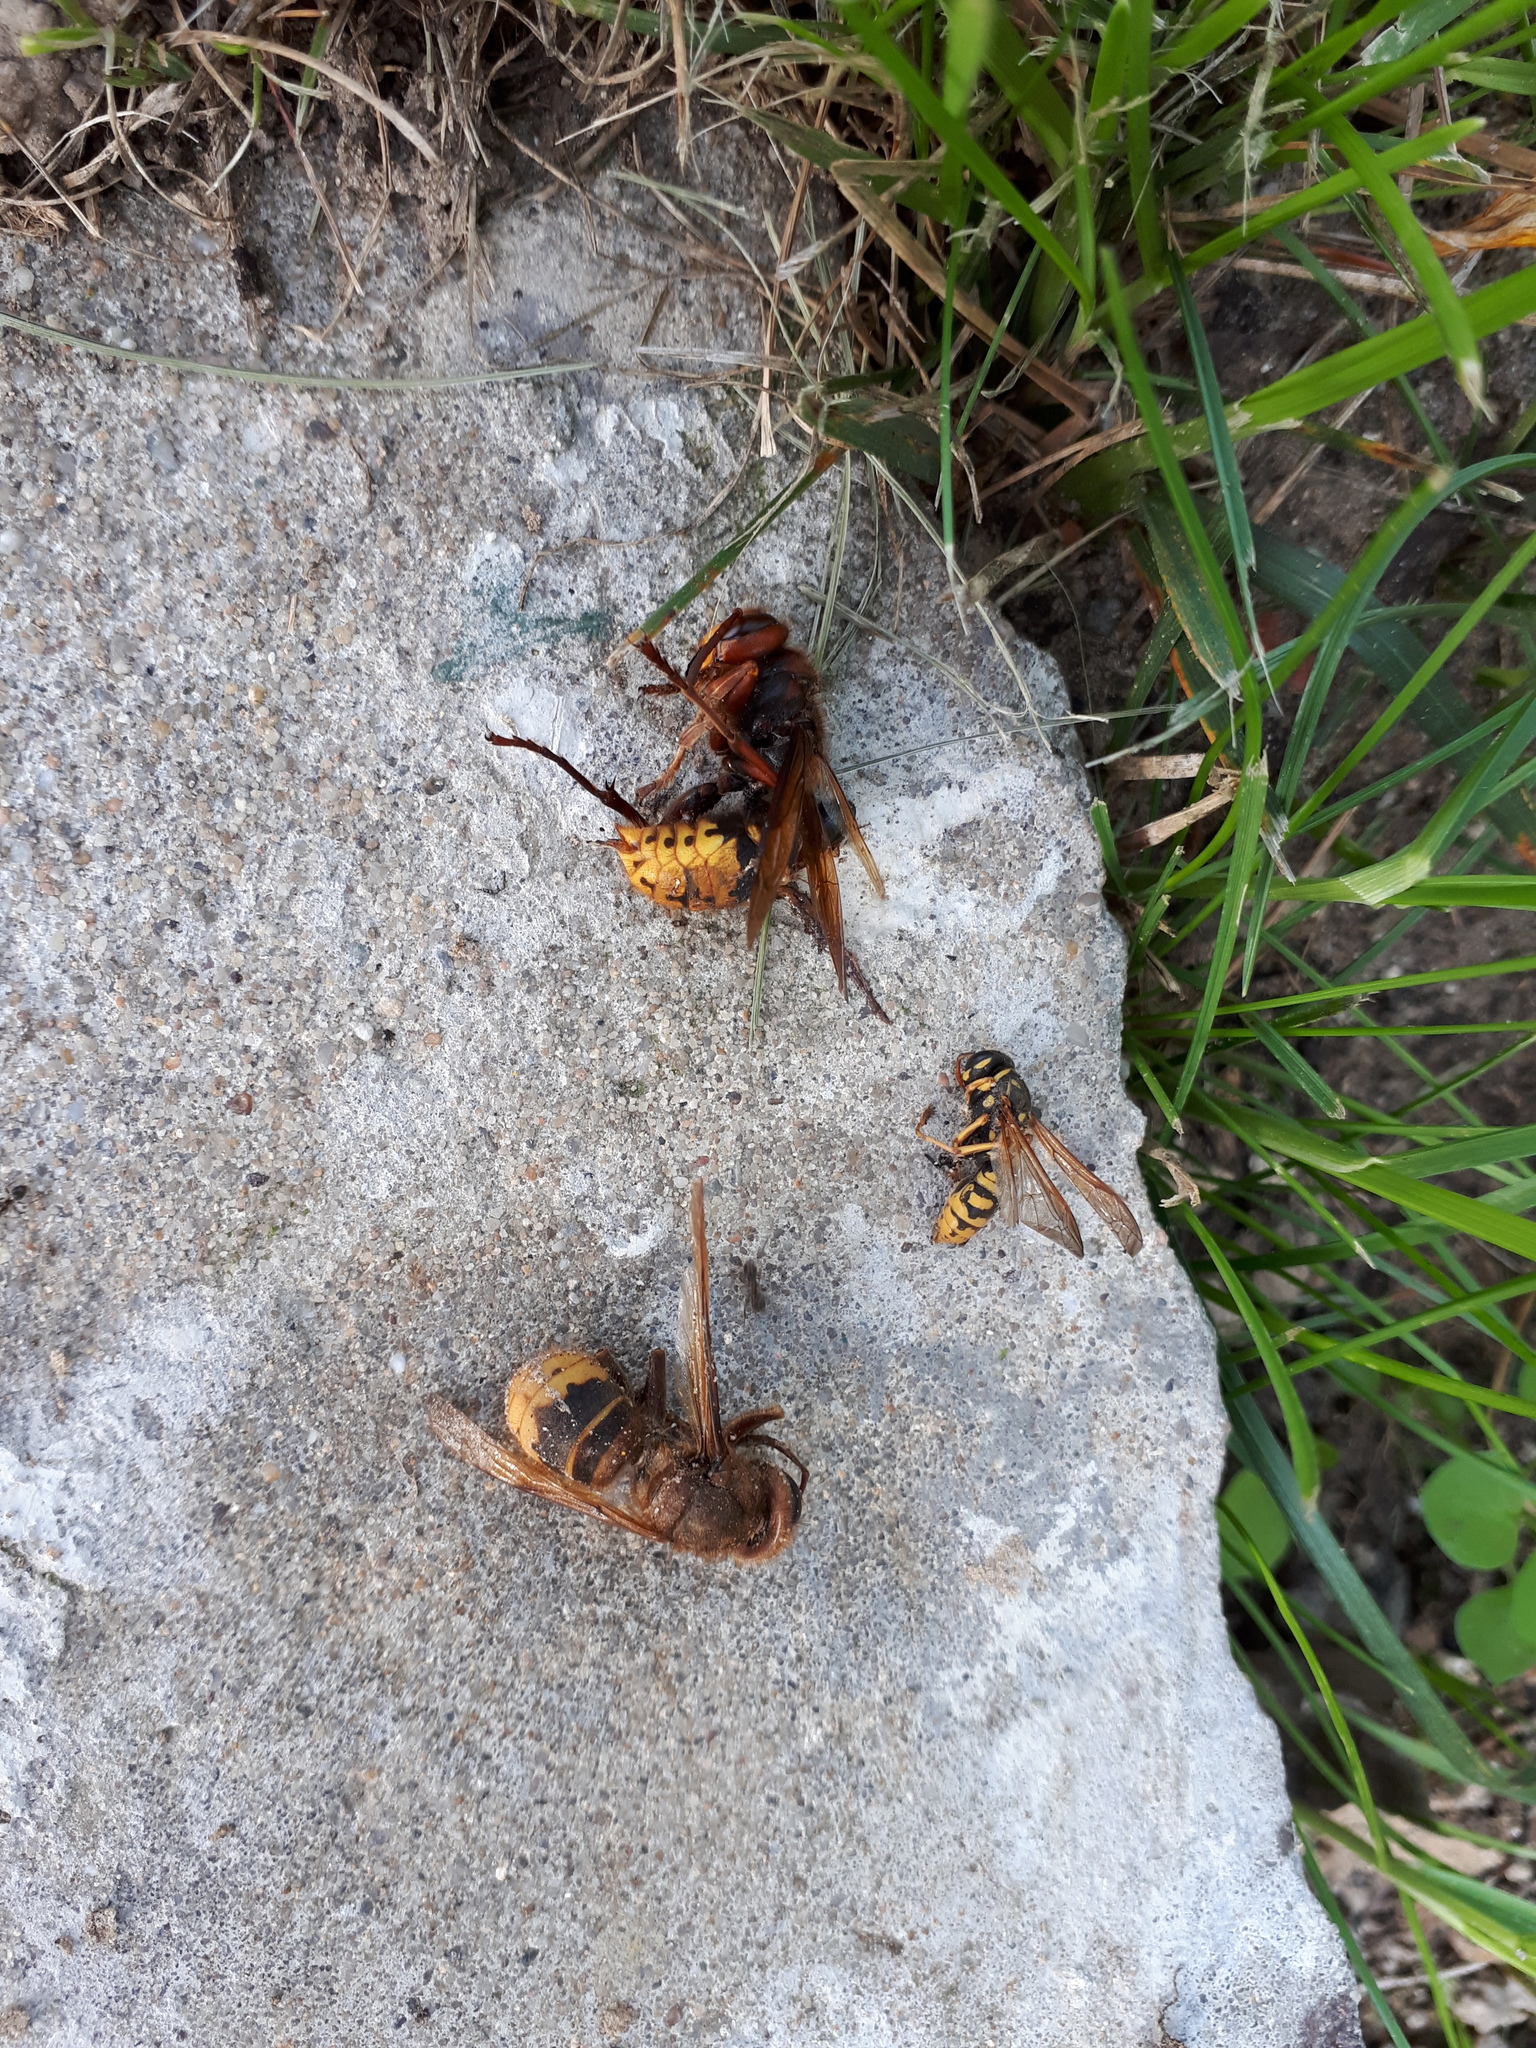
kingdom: Animalia
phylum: Arthropoda
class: Insecta
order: Hymenoptera
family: Vespidae
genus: Vespa
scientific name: Vespa crabro
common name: Hornet
